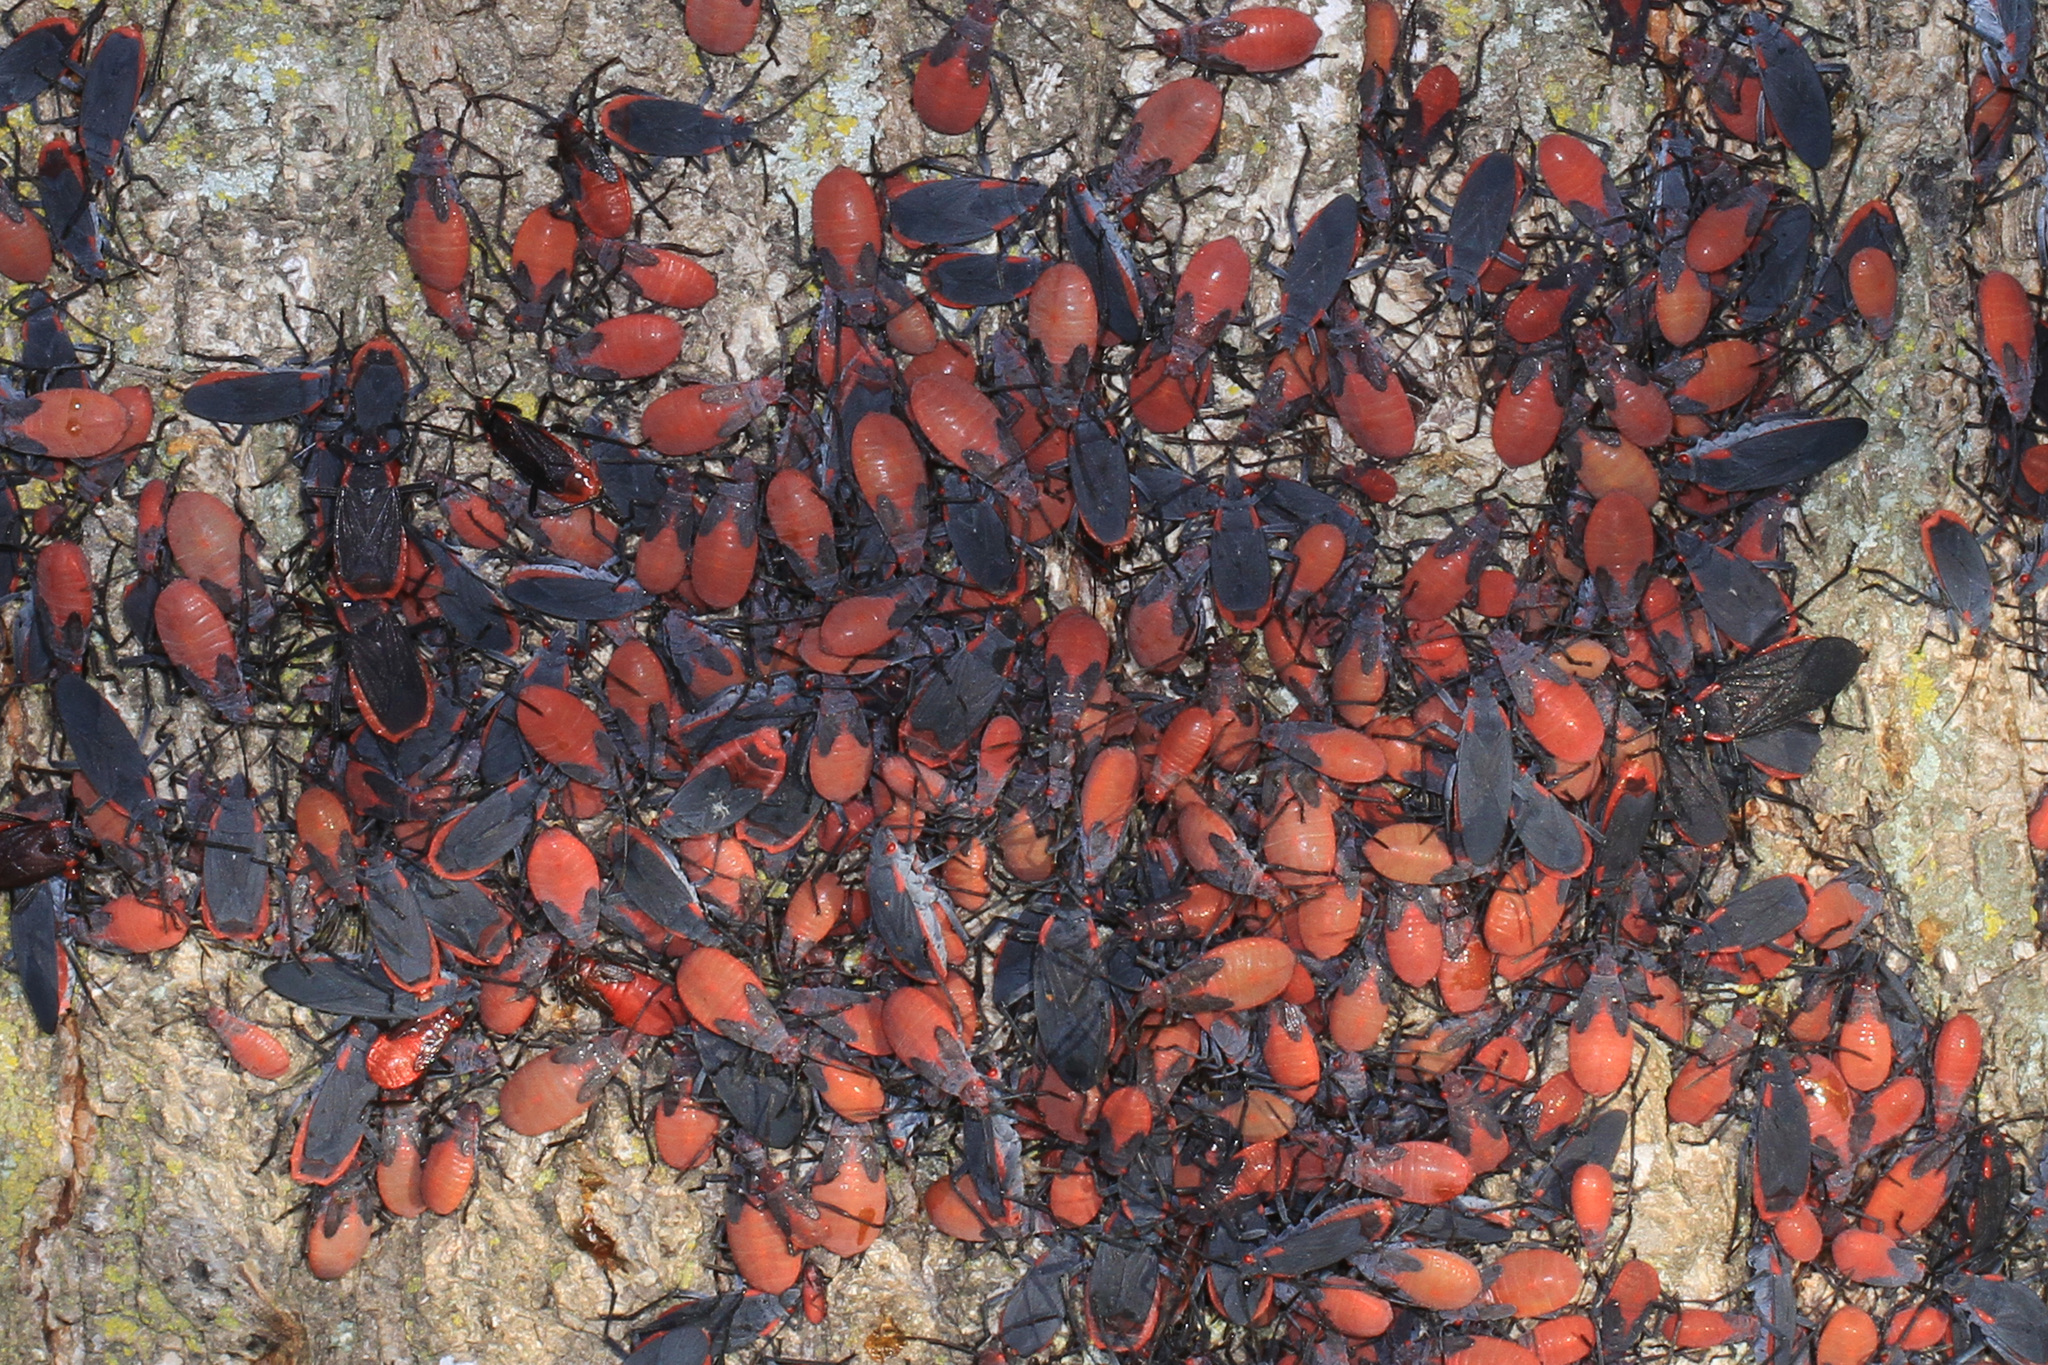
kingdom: Animalia
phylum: Arthropoda
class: Insecta
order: Hemiptera
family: Rhopalidae
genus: Jadera
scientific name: Jadera haematoloma
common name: Red-shouldered bug
